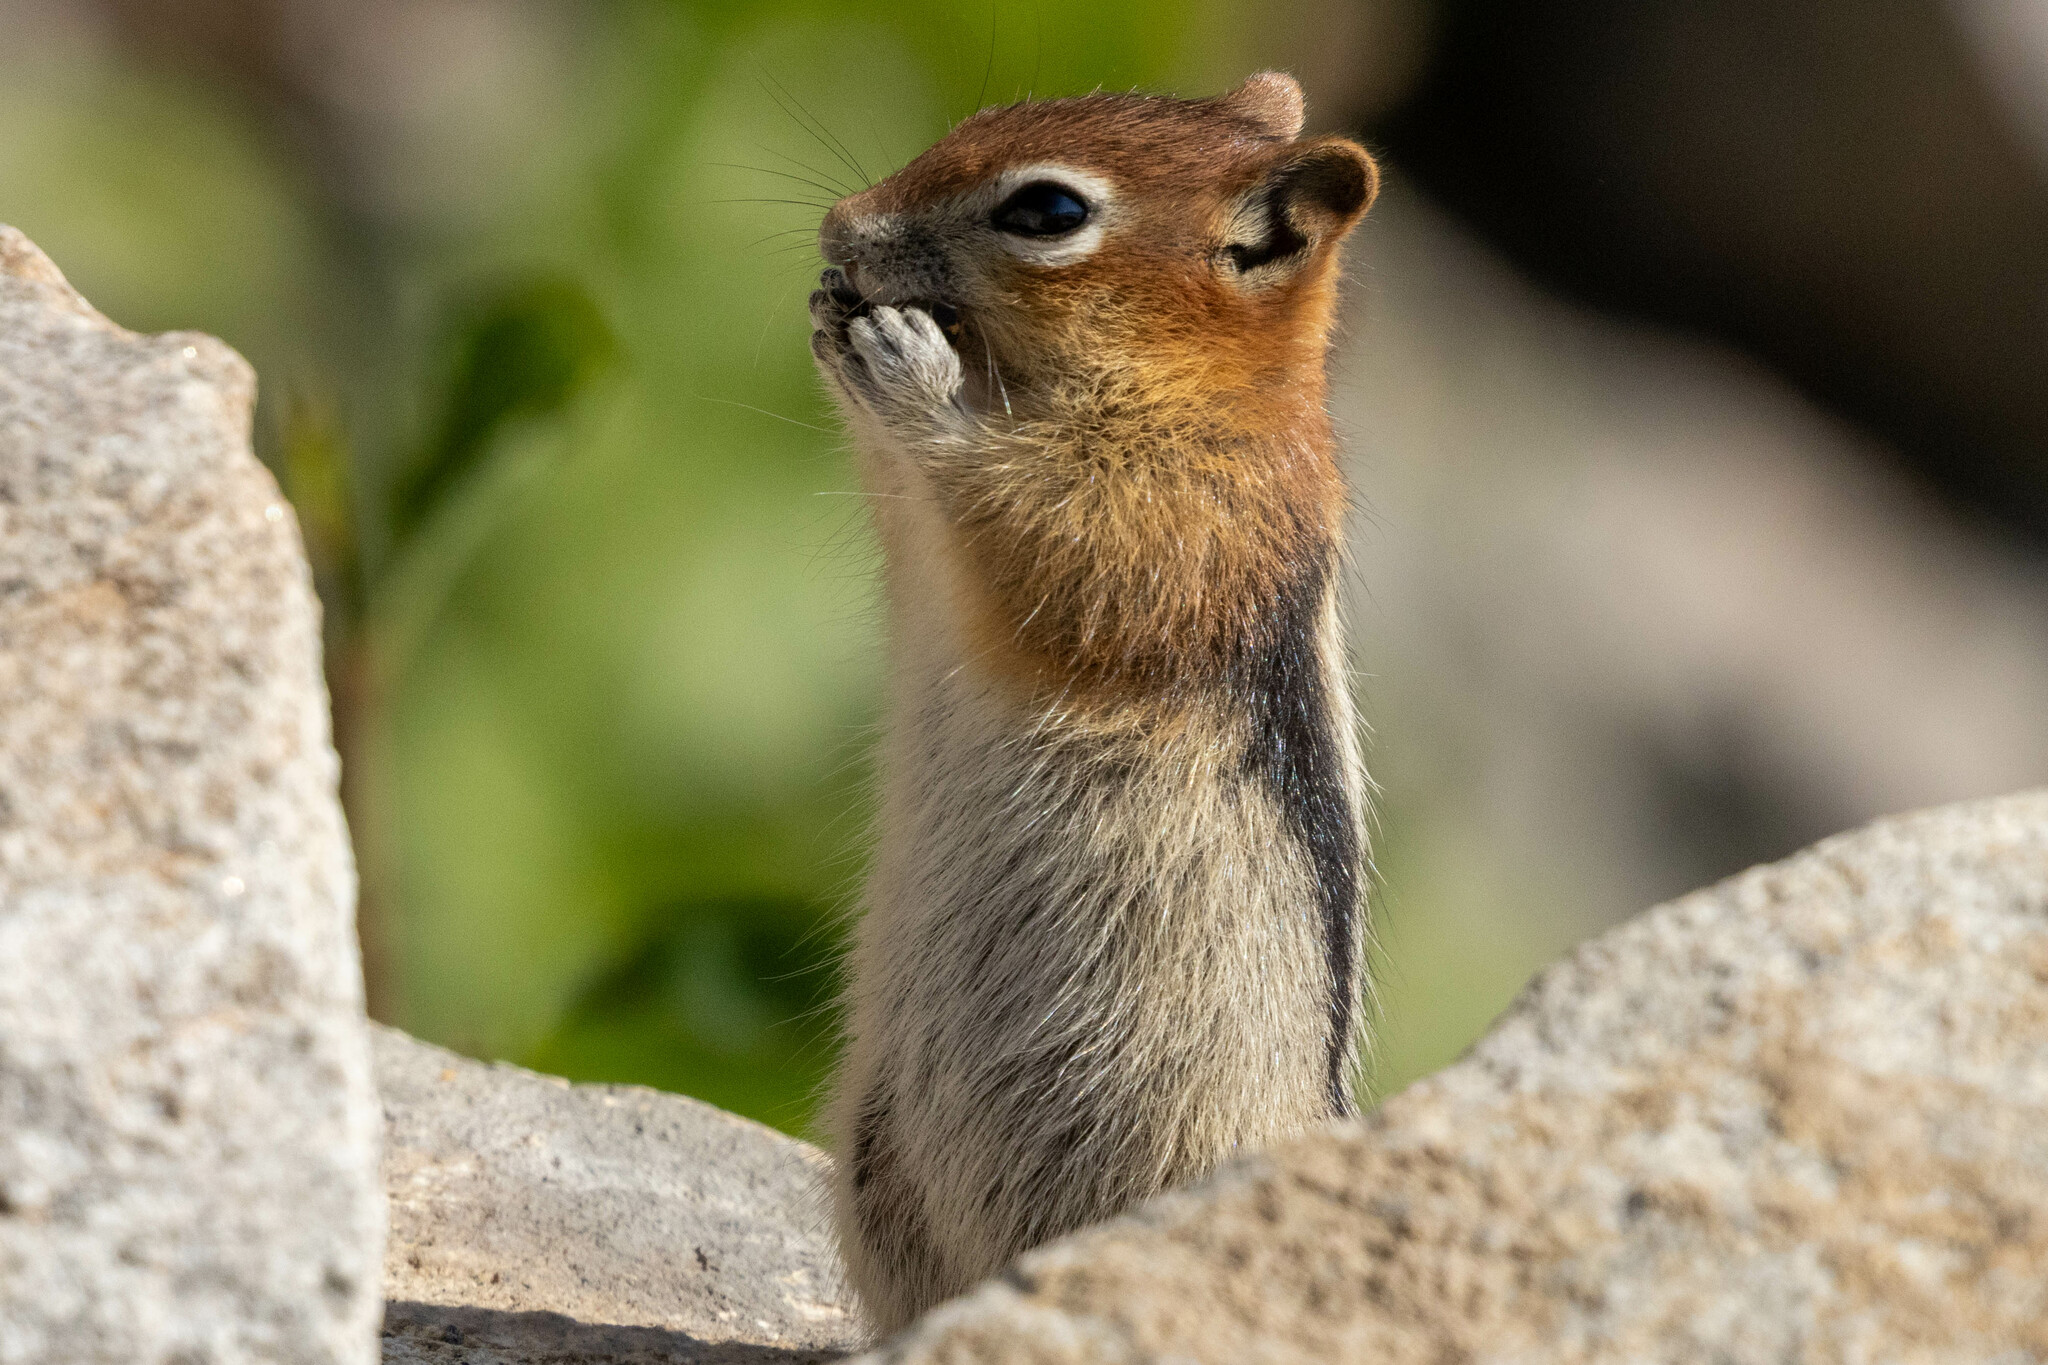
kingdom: Animalia
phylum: Chordata
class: Mammalia
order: Rodentia
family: Sciuridae
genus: Callospermophilus
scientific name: Callospermophilus lateralis
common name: Golden-mantled ground squirrel
